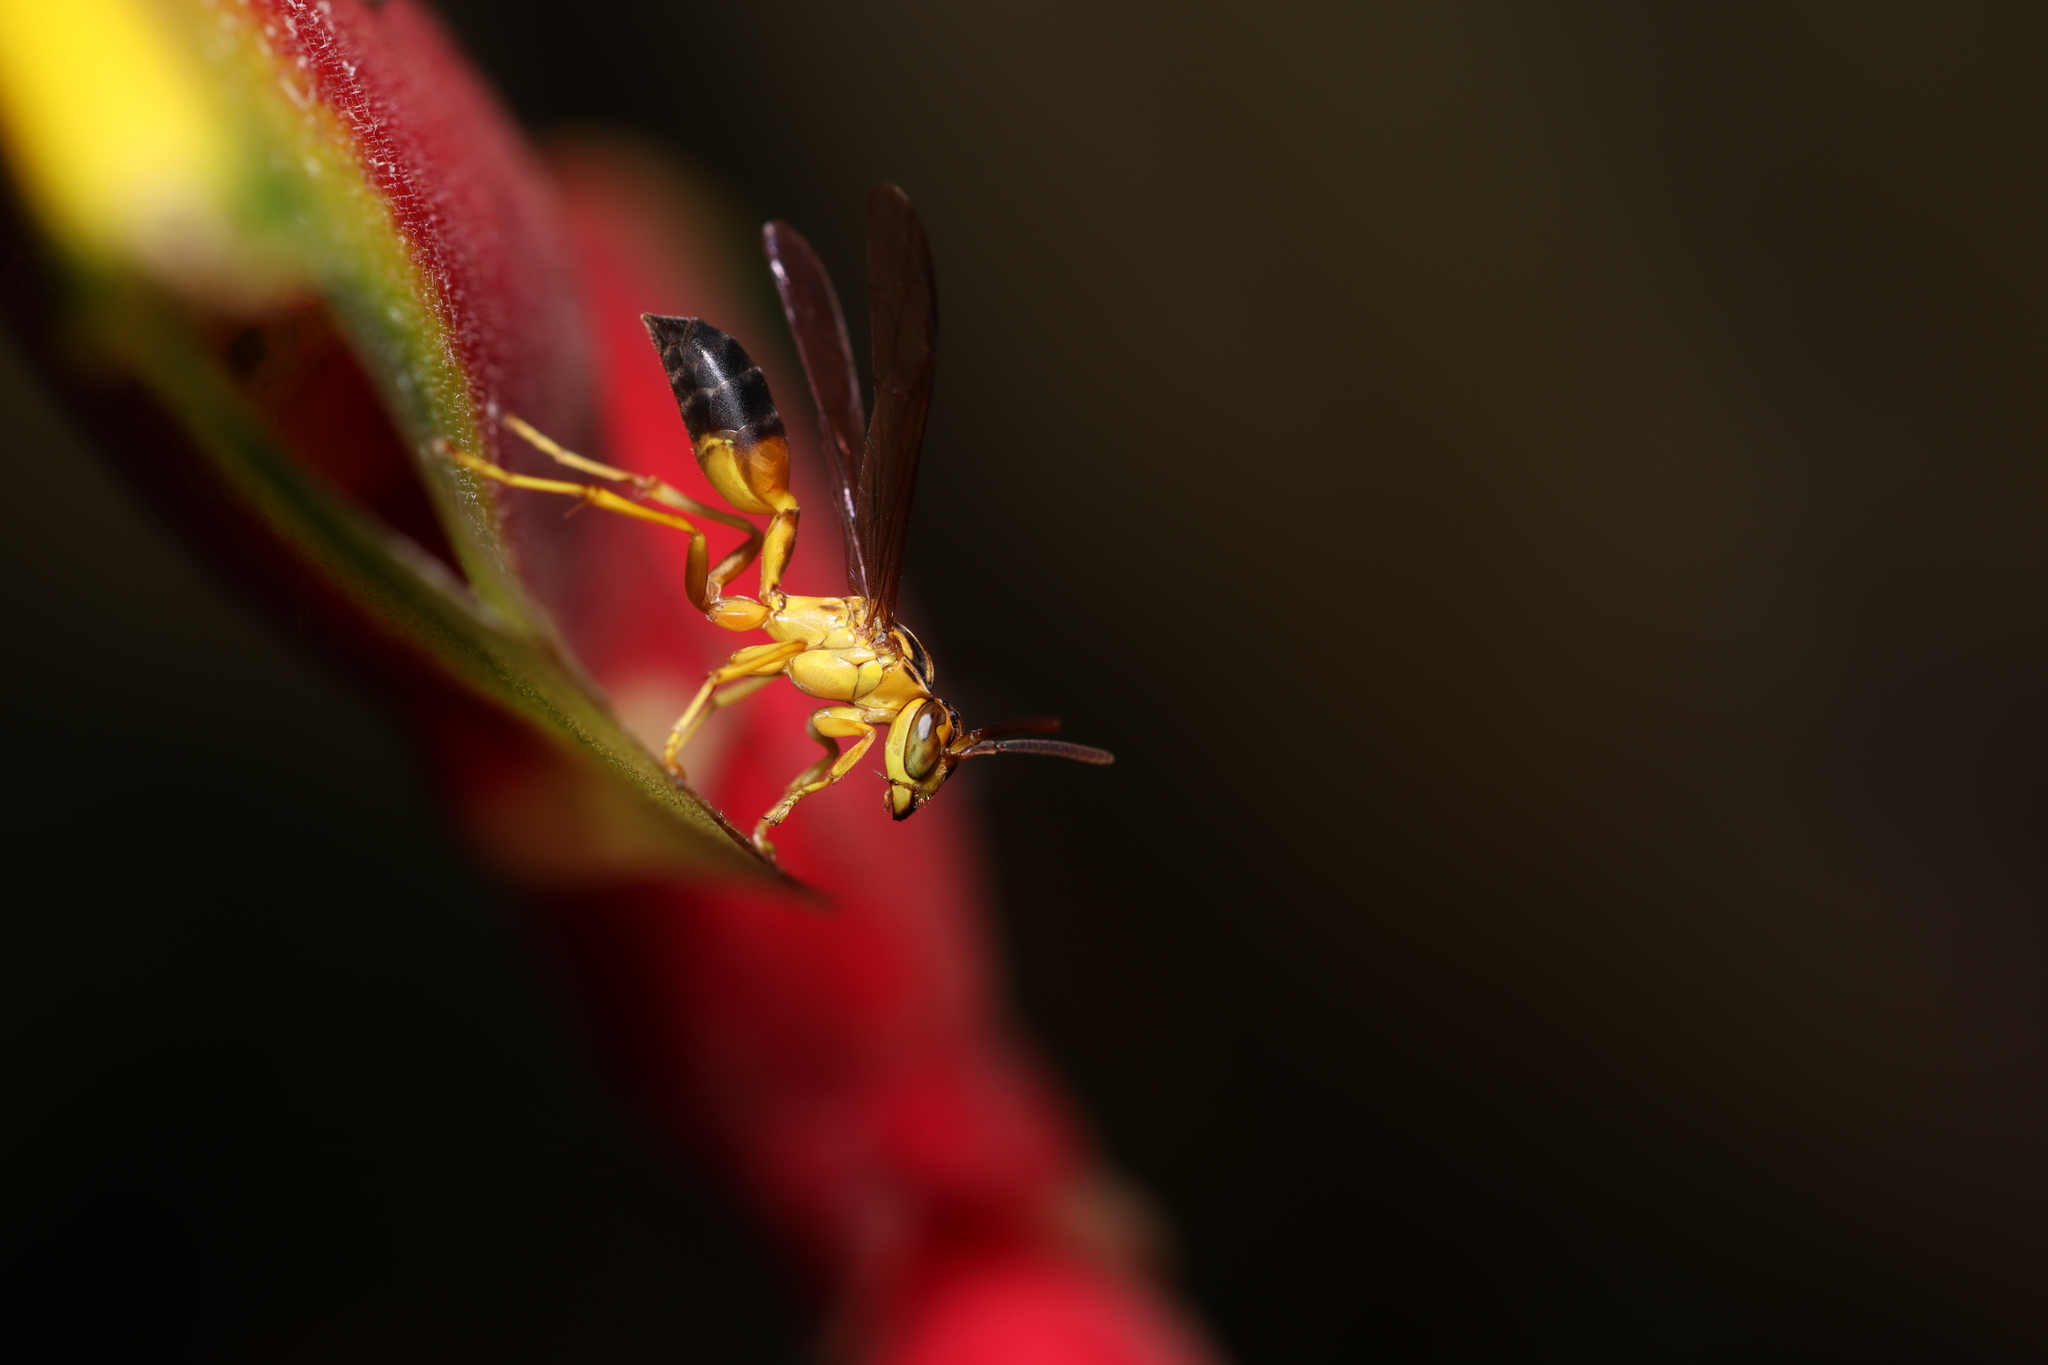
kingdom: Animalia
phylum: Arthropoda
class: Insecta
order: Hymenoptera
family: Vespidae
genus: Agelaia
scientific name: Agelaia pallipes
